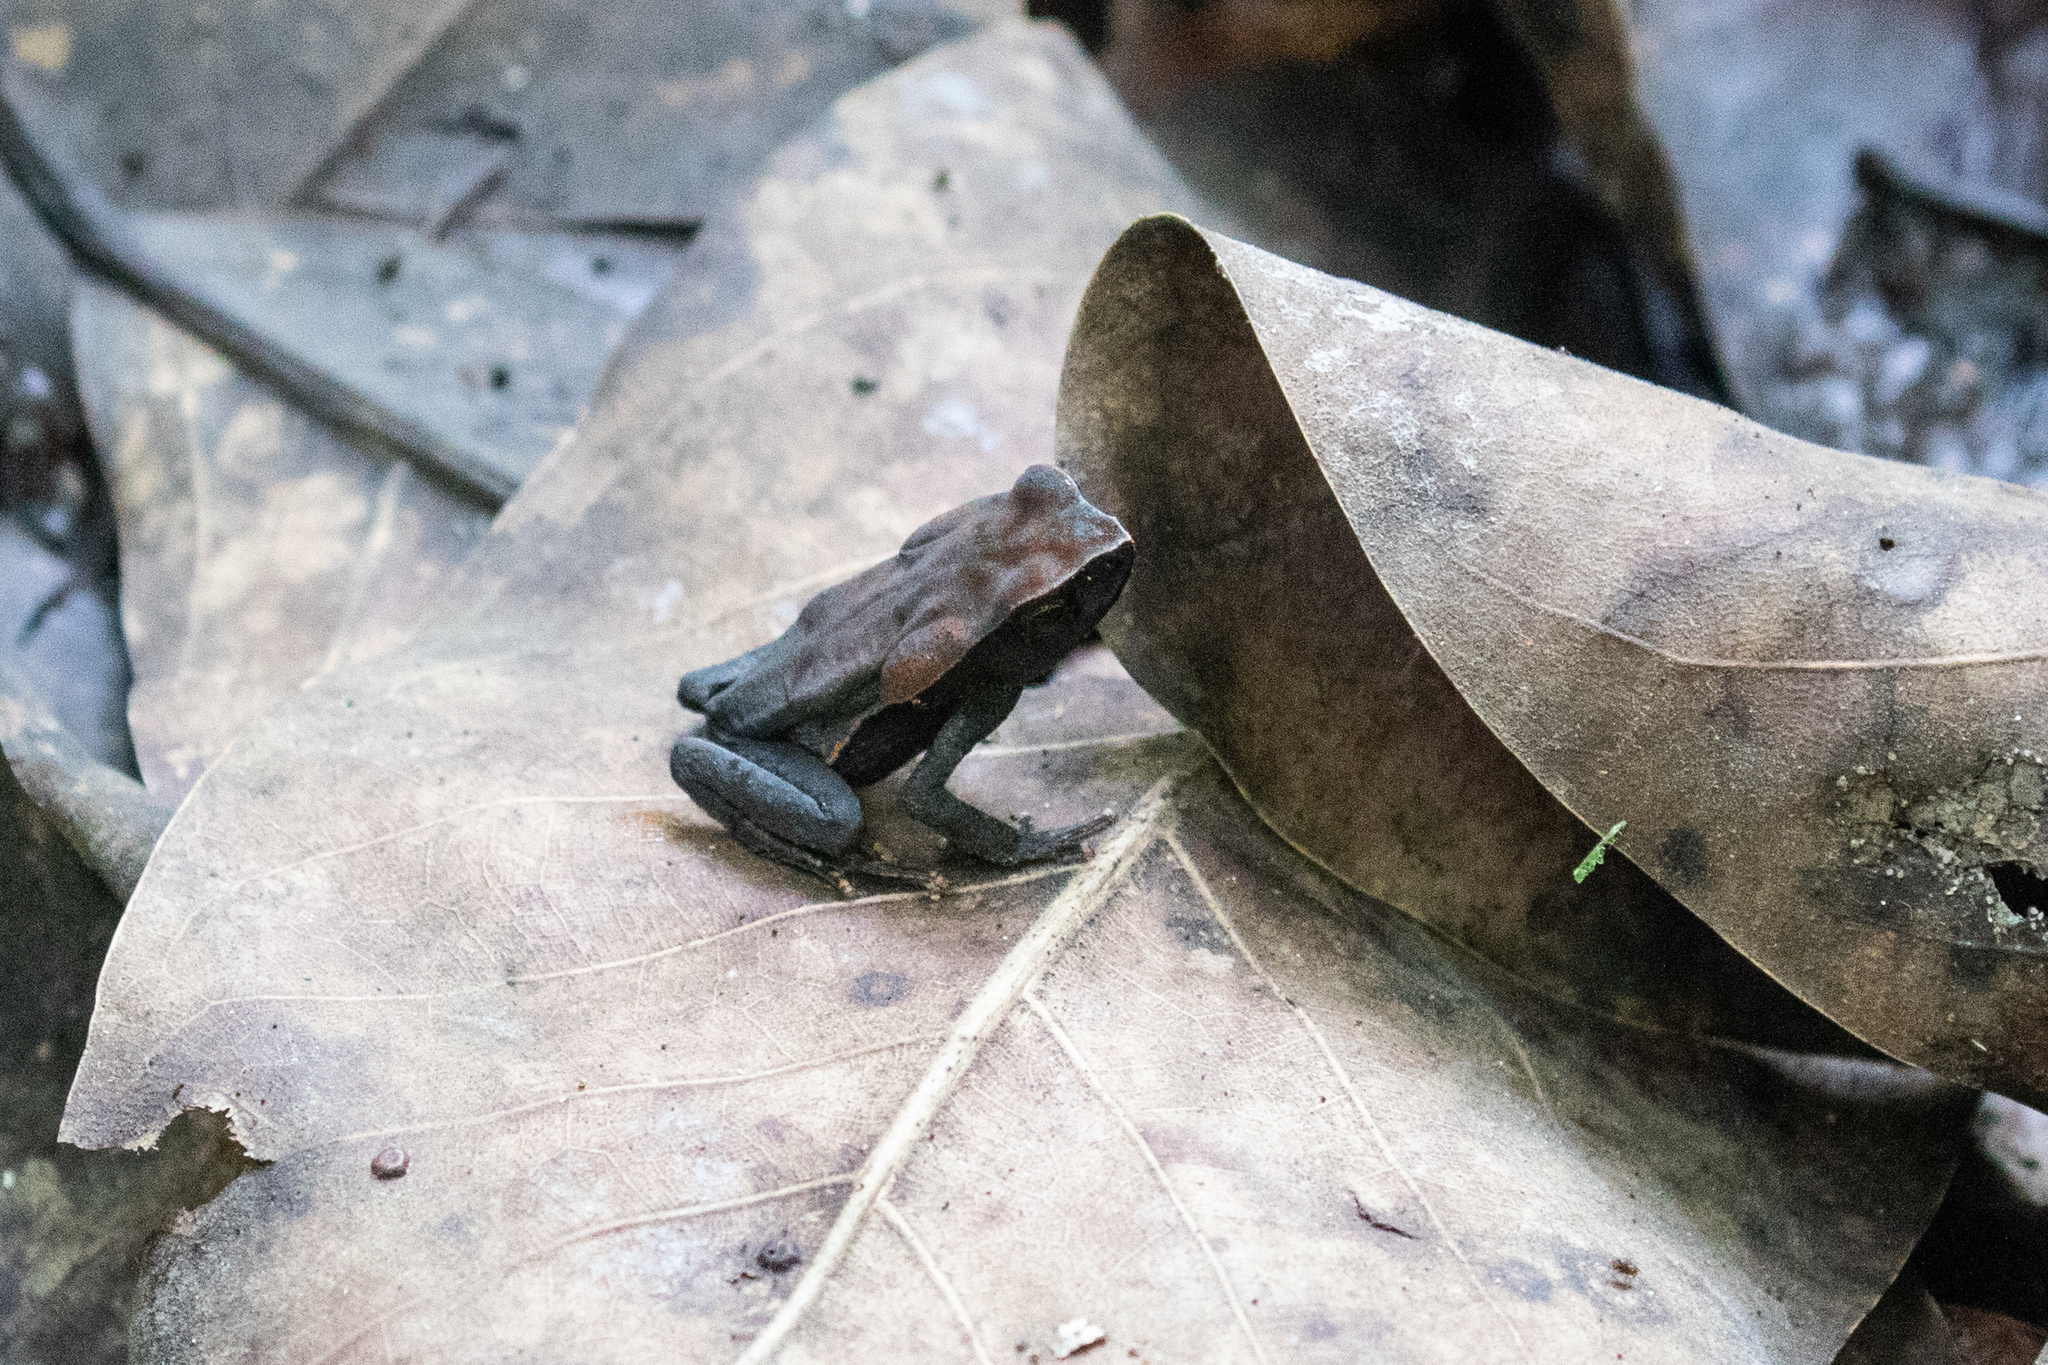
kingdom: Animalia
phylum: Chordata
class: Amphibia
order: Anura
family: Bufonidae
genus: Rhaebo
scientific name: Rhaebo haematiticus
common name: Truando toad
